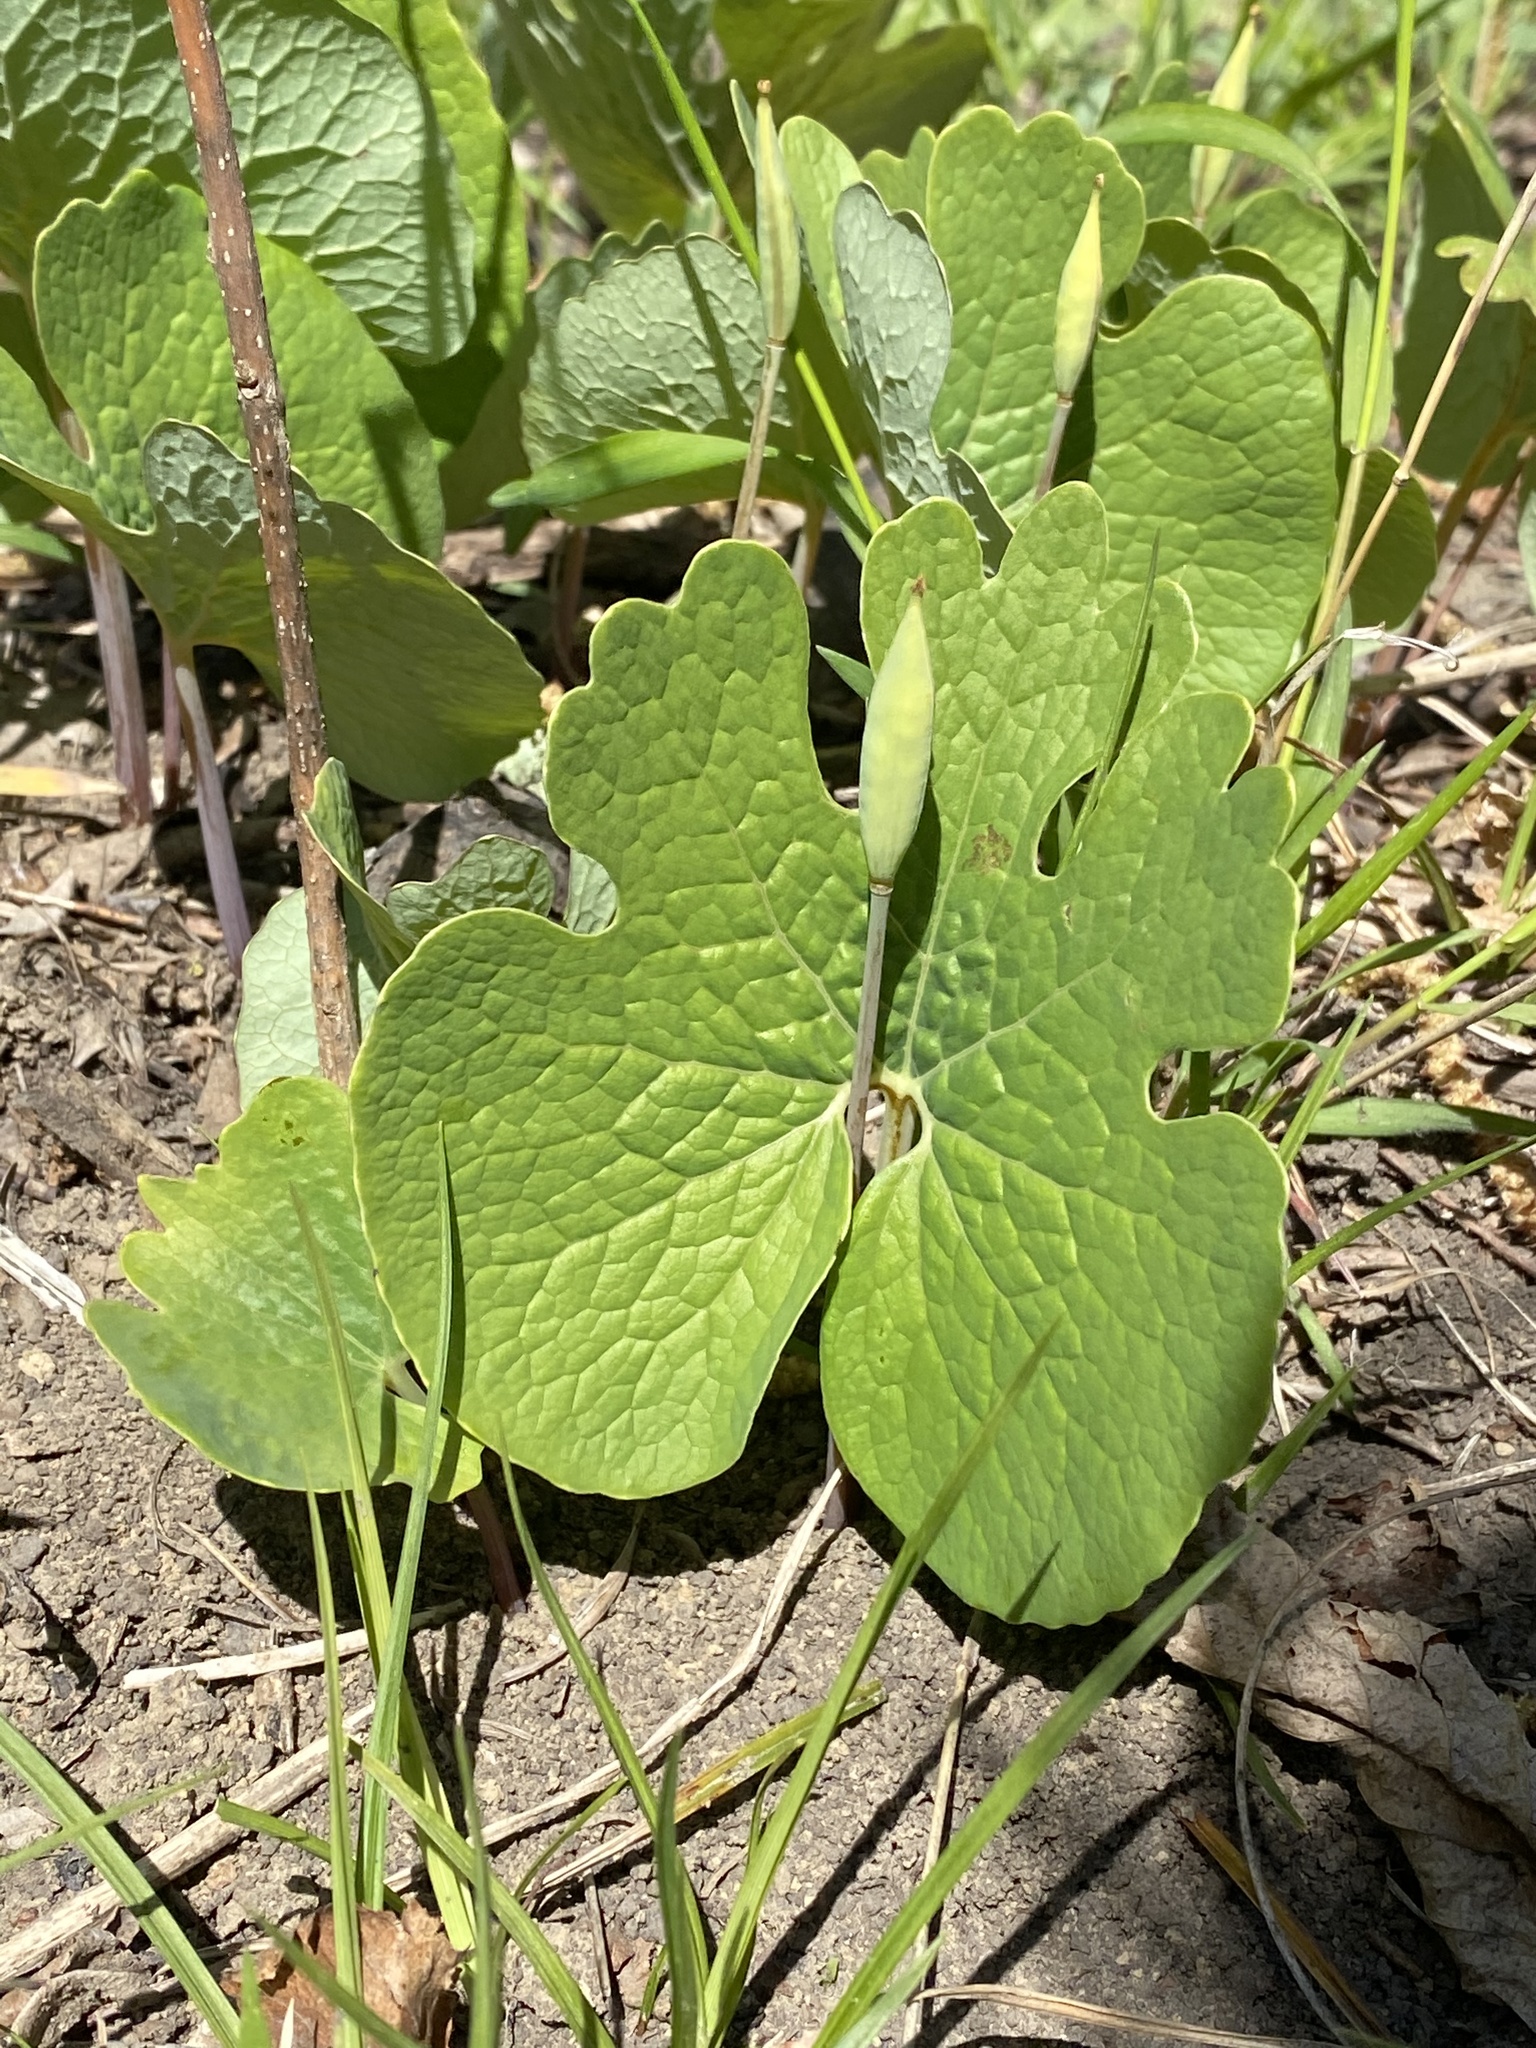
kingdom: Plantae
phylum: Tracheophyta
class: Magnoliopsida
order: Ranunculales
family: Papaveraceae
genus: Sanguinaria
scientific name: Sanguinaria canadensis
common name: Bloodroot
